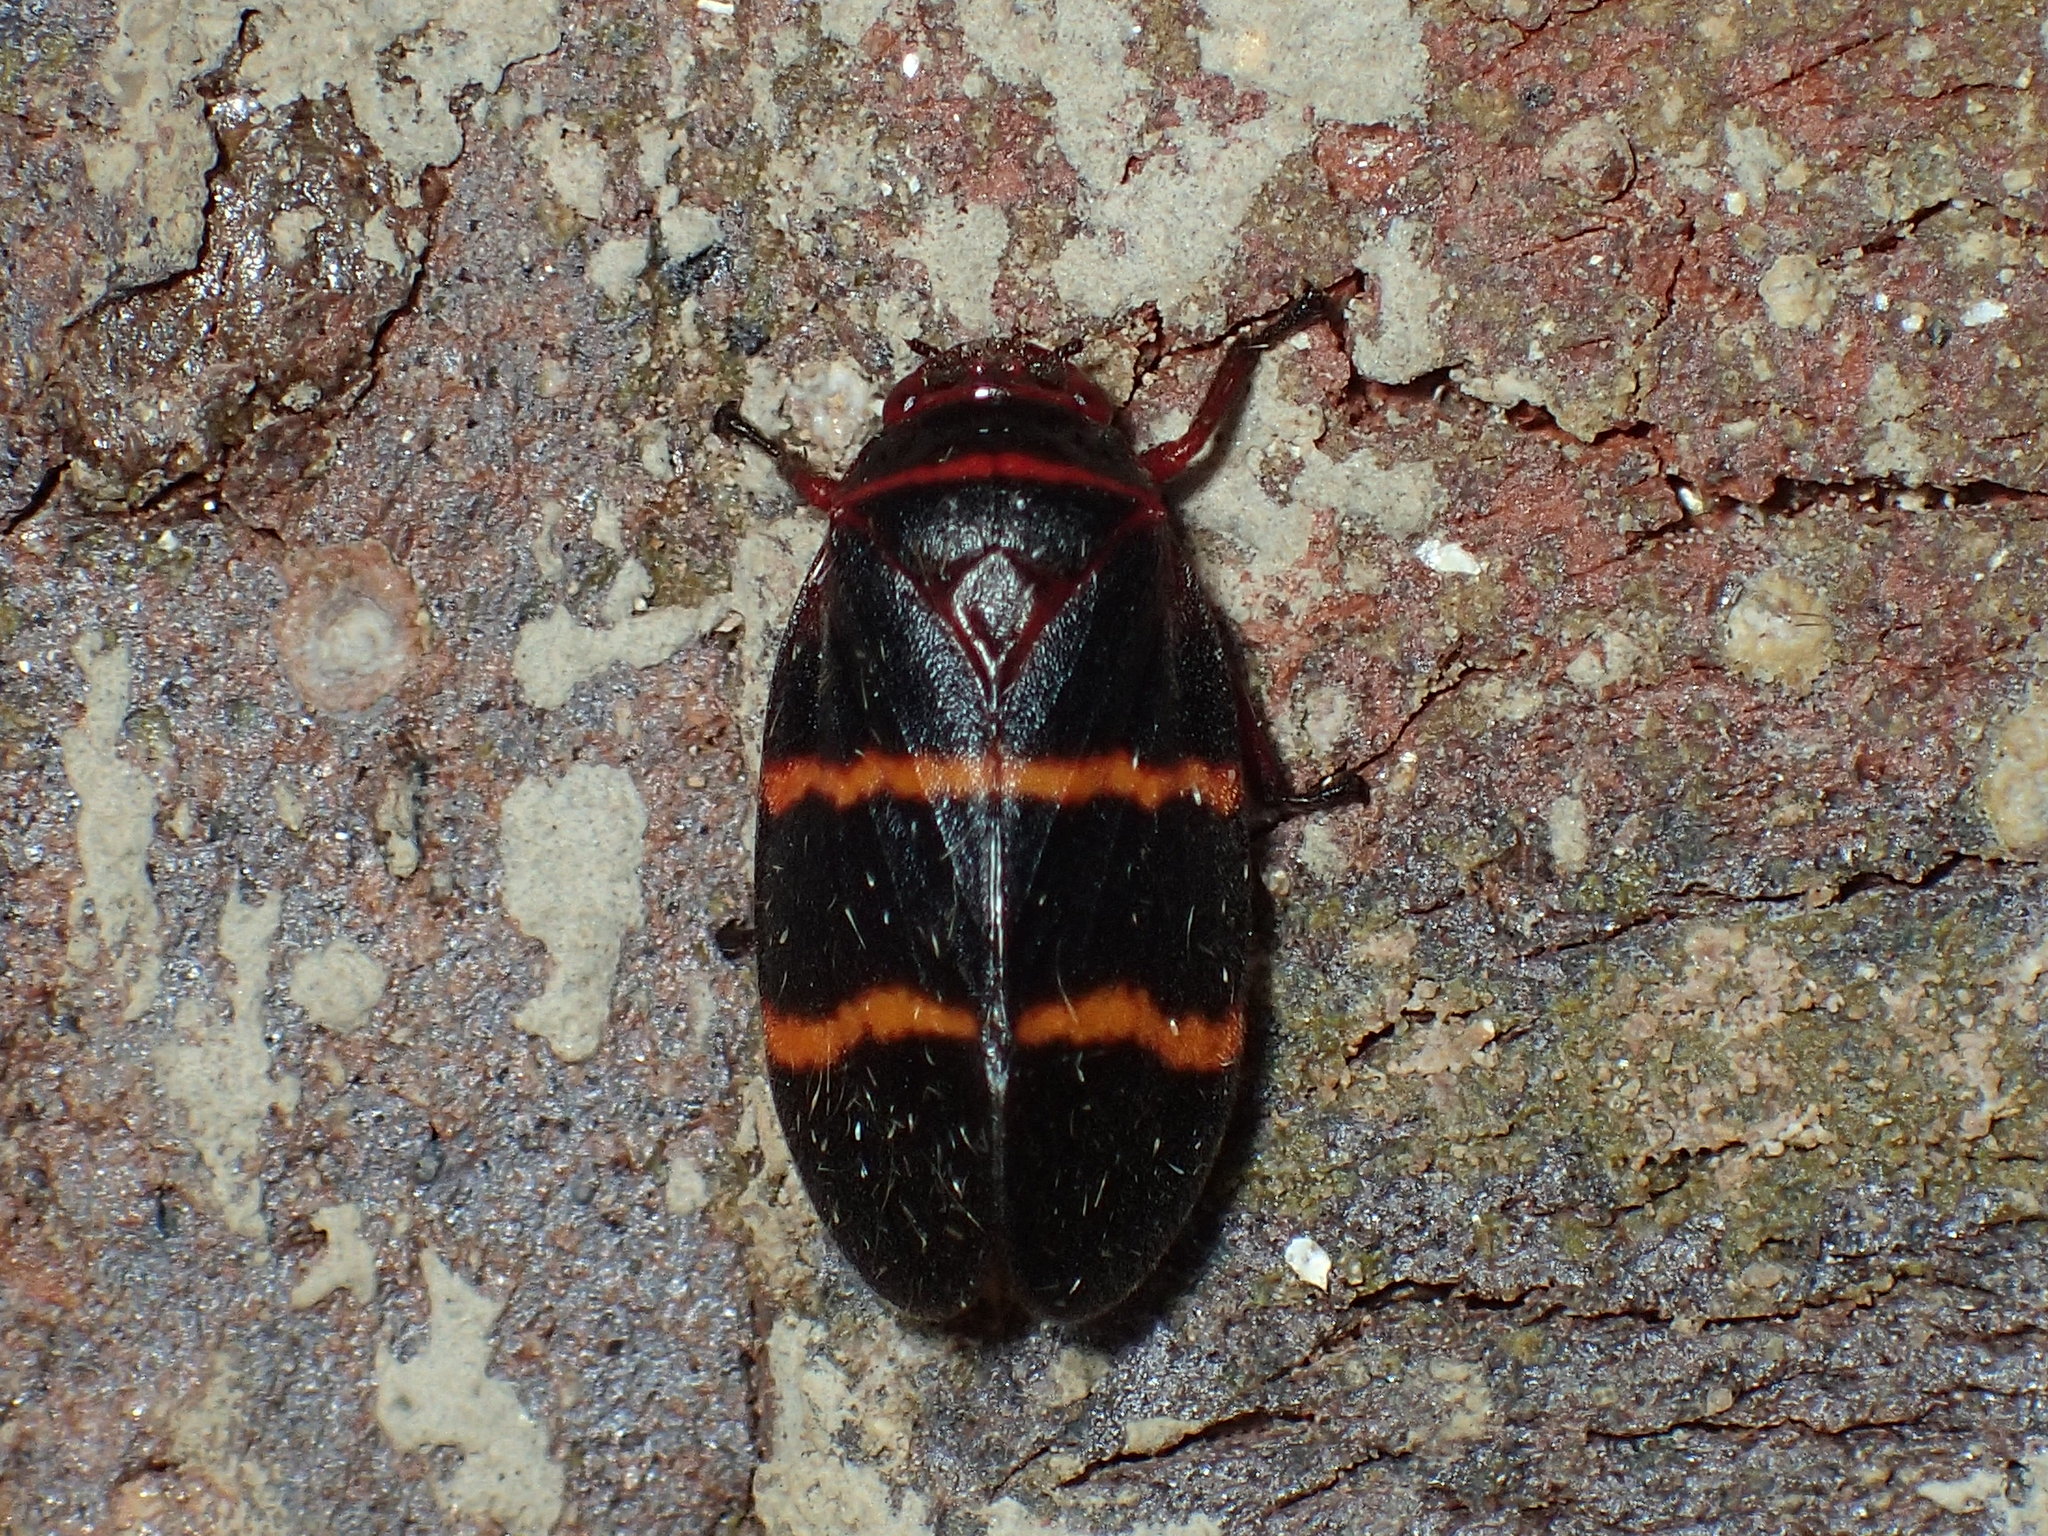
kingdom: Animalia
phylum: Arthropoda
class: Insecta
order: Hemiptera
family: Cercopidae
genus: Prosapia
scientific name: Prosapia bicincta
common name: Twolined spittlebug
